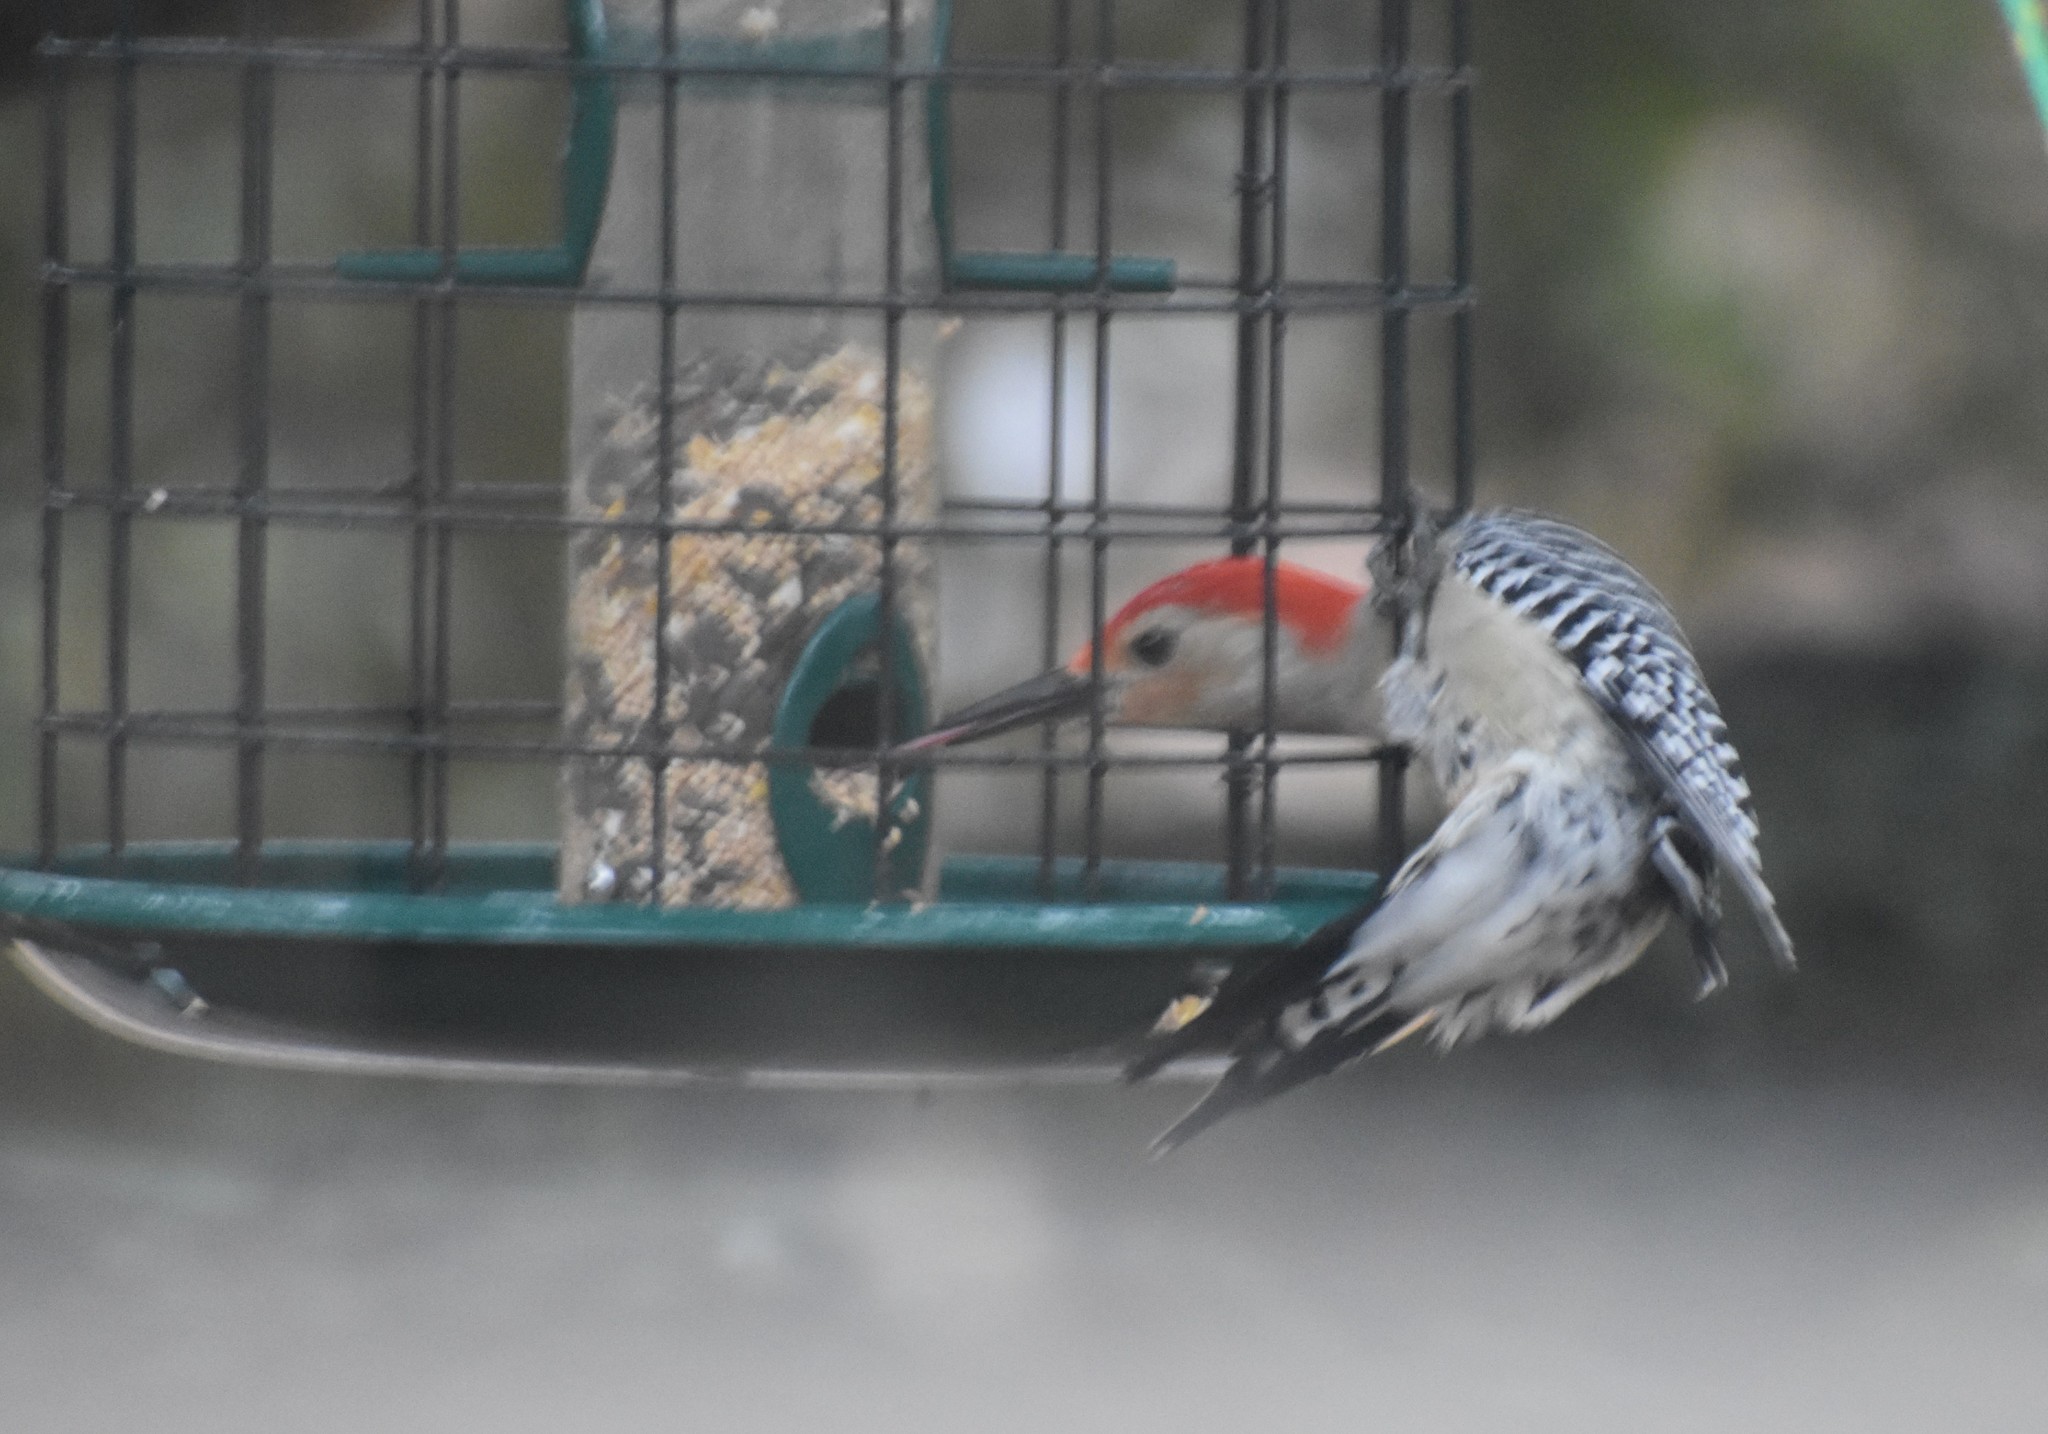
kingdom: Animalia
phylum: Chordata
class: Aves
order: Piciformes
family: Picidae
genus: Melanerpes
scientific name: Melanerpes carolinus
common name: Red-bellied woodpecker
